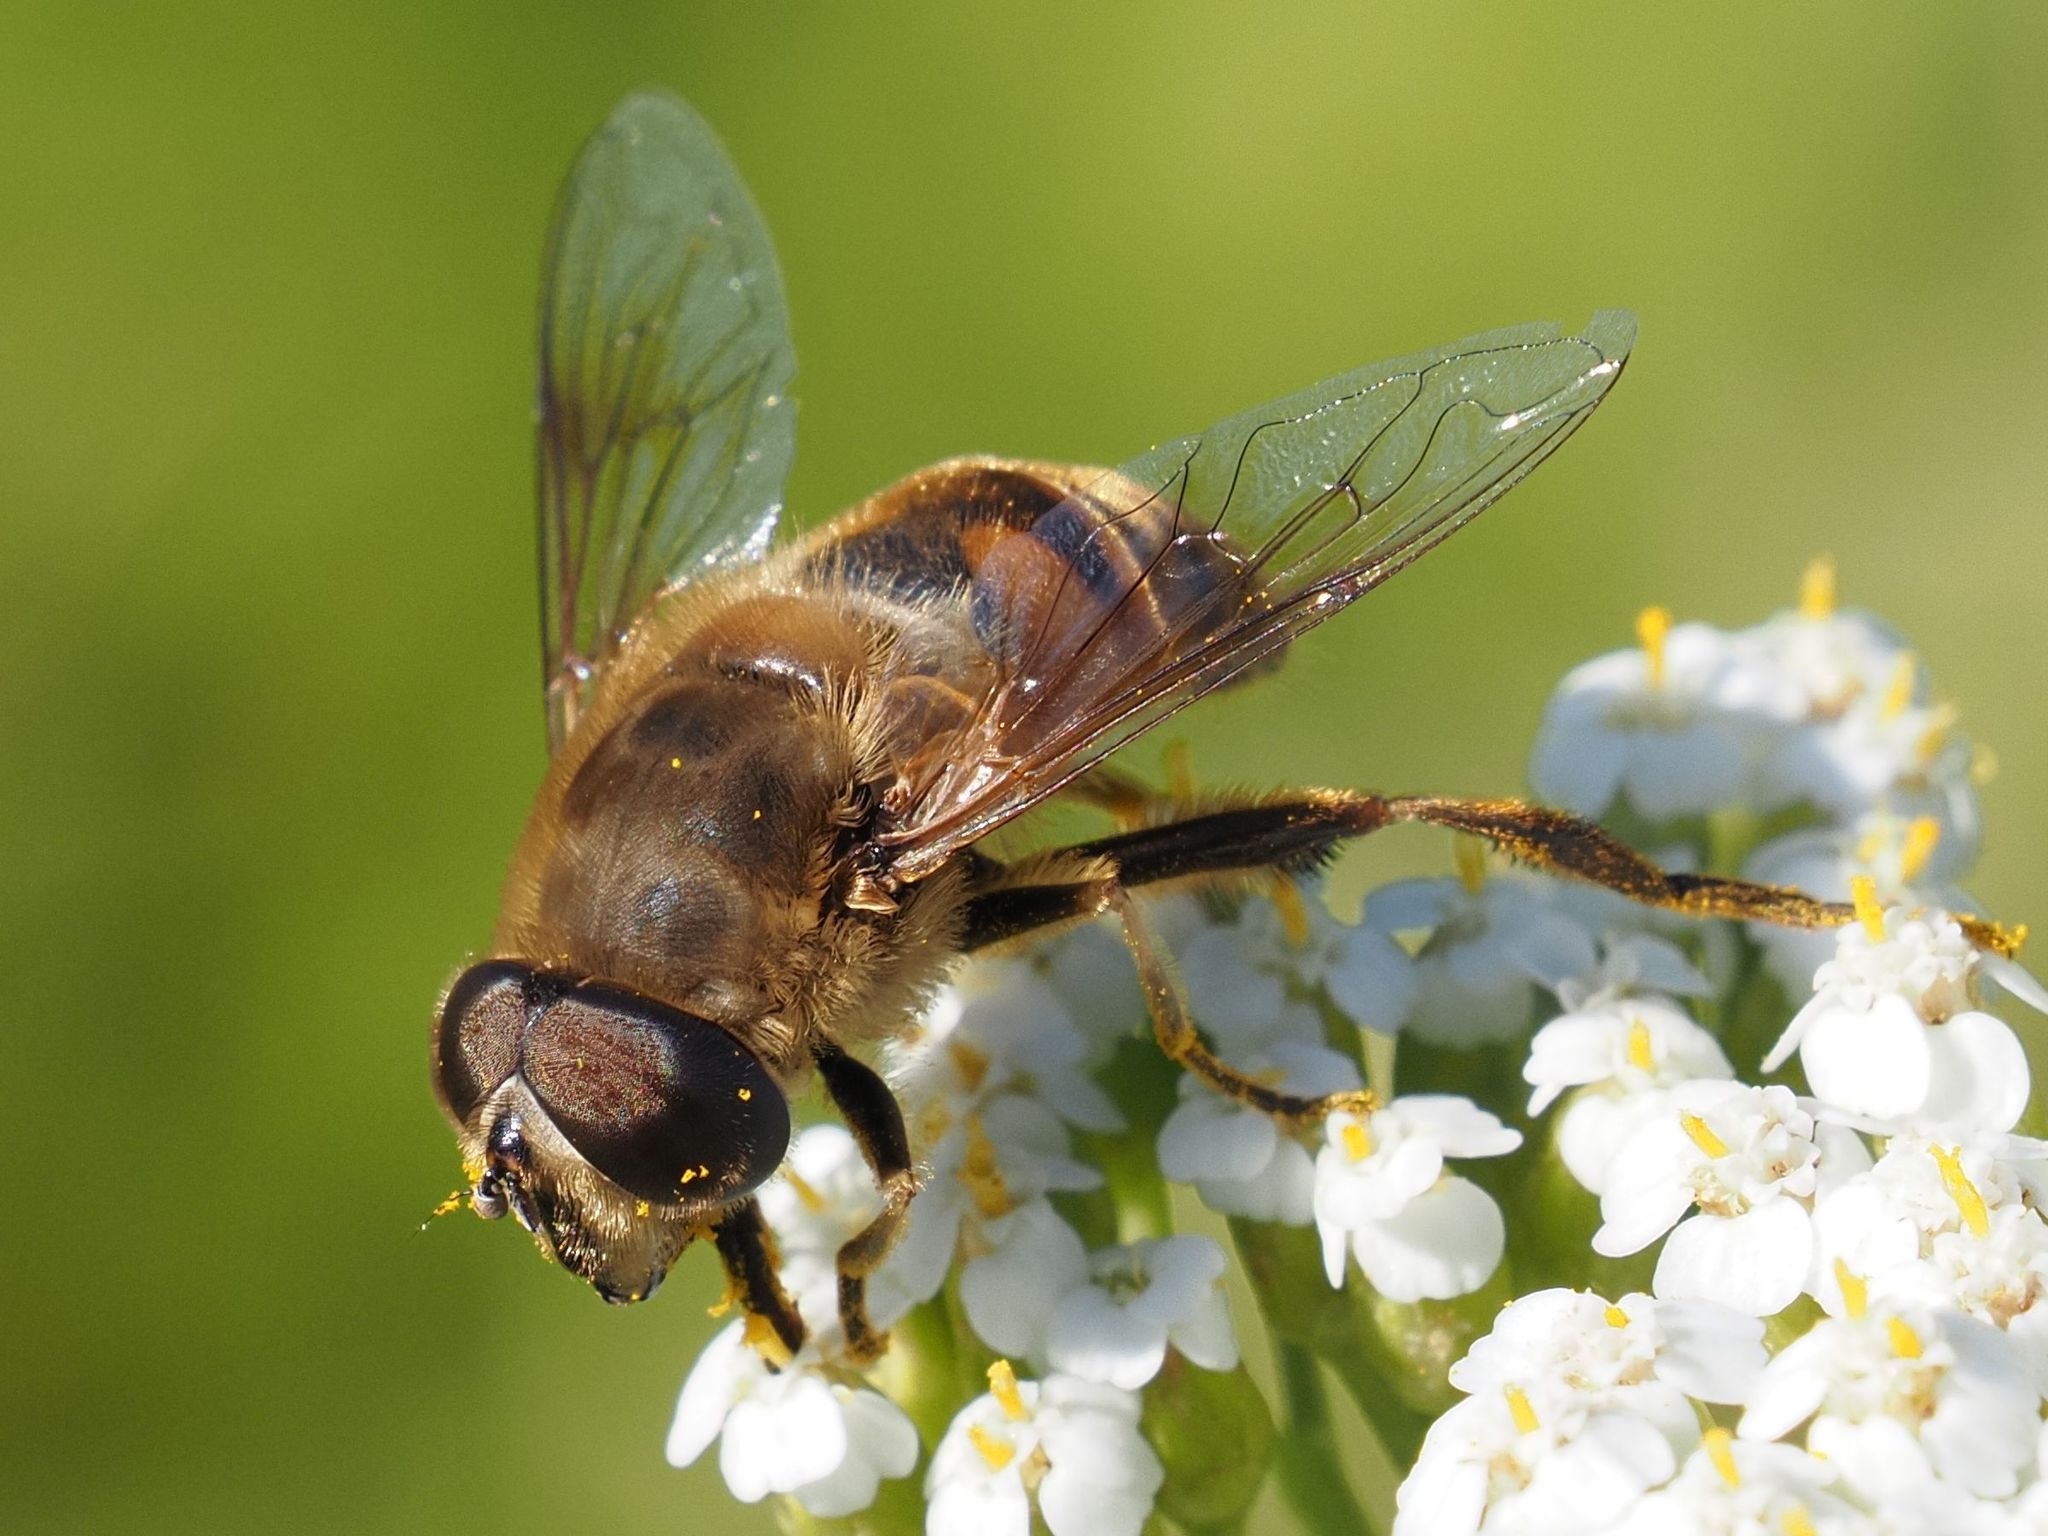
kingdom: Animalia
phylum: Arthropoda
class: Insecta
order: Diptera
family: Syrphidae
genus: Eristalis
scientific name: Eristalis tenax
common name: Drone fly
